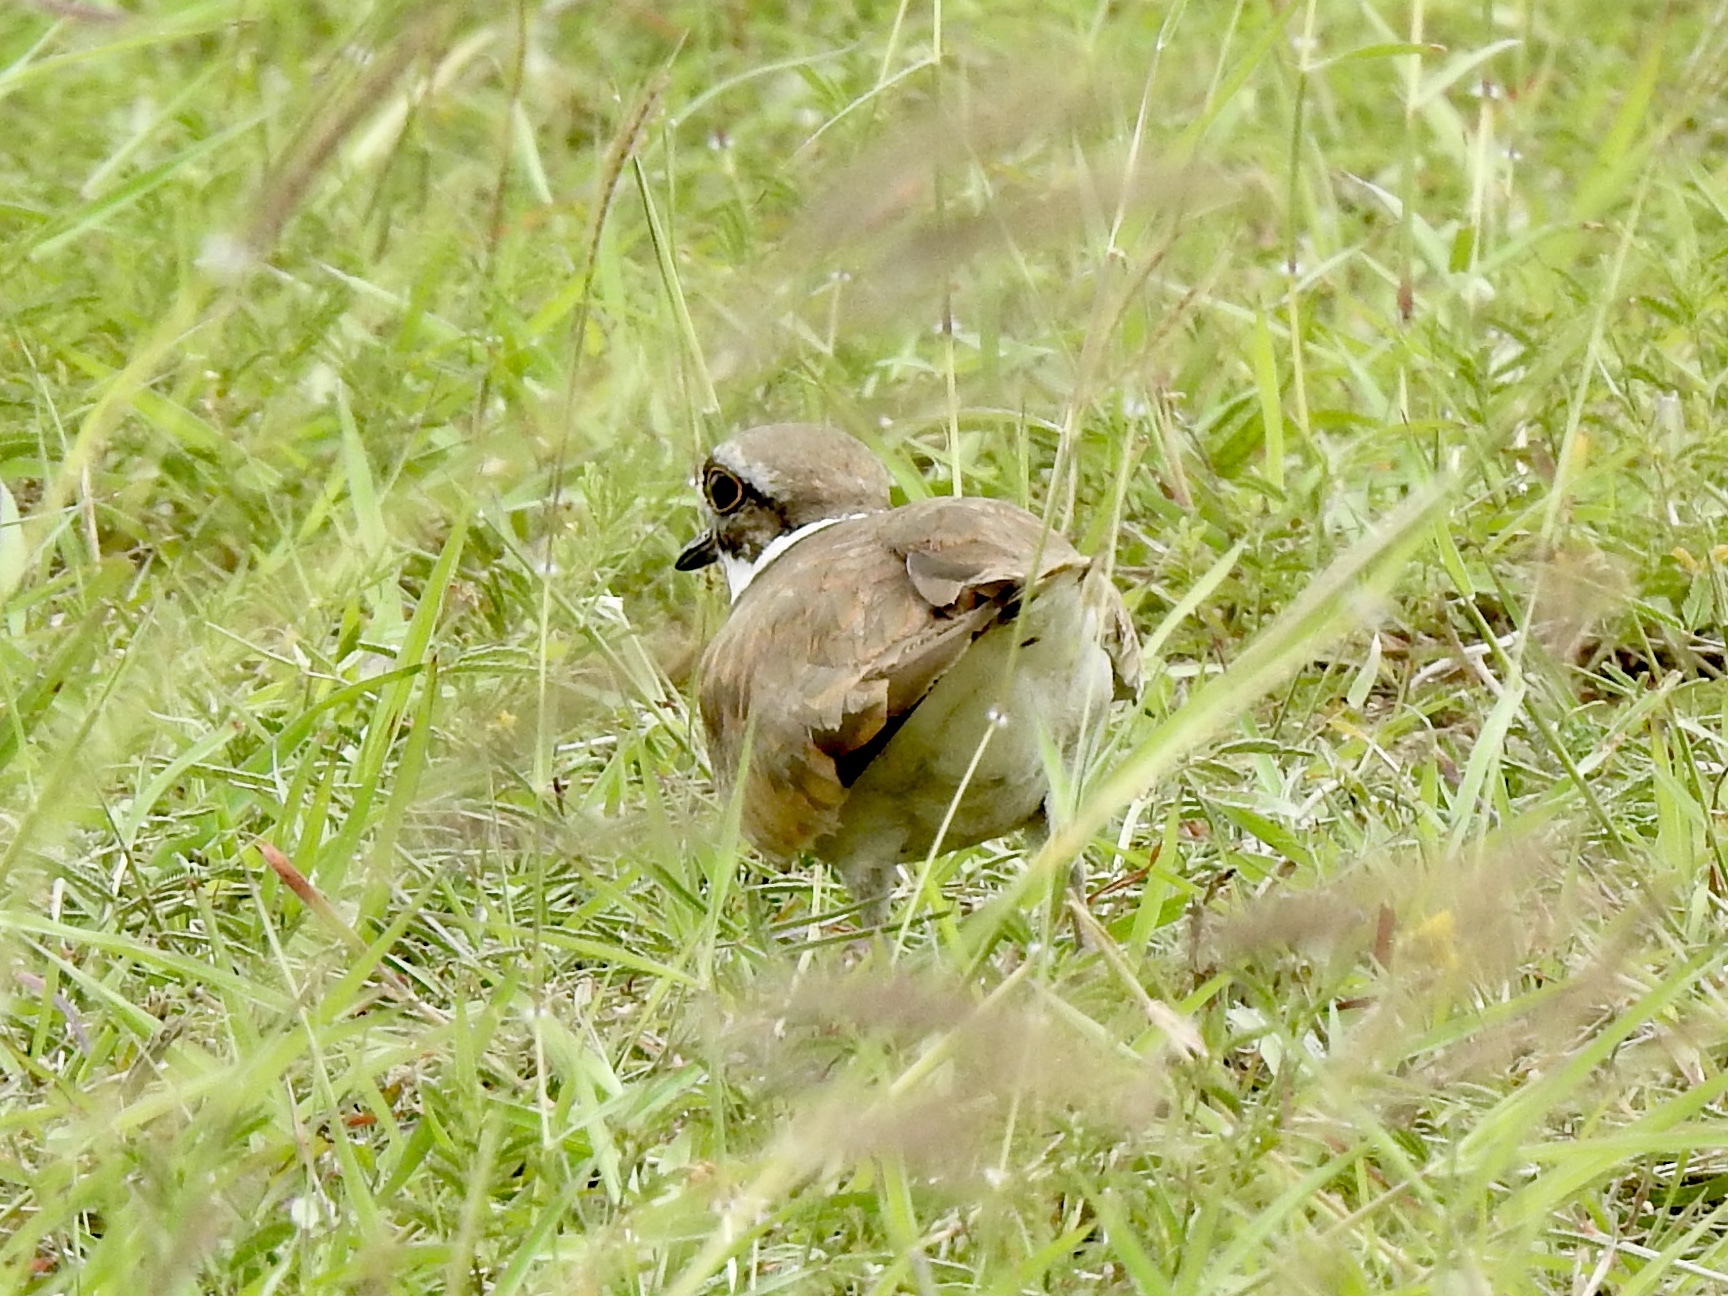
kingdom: Animalia
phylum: Chordata
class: Aves
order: Charadriiformes
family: Charadriidae
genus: Charadrius
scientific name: Charadrius vociferus
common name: Killdeer
